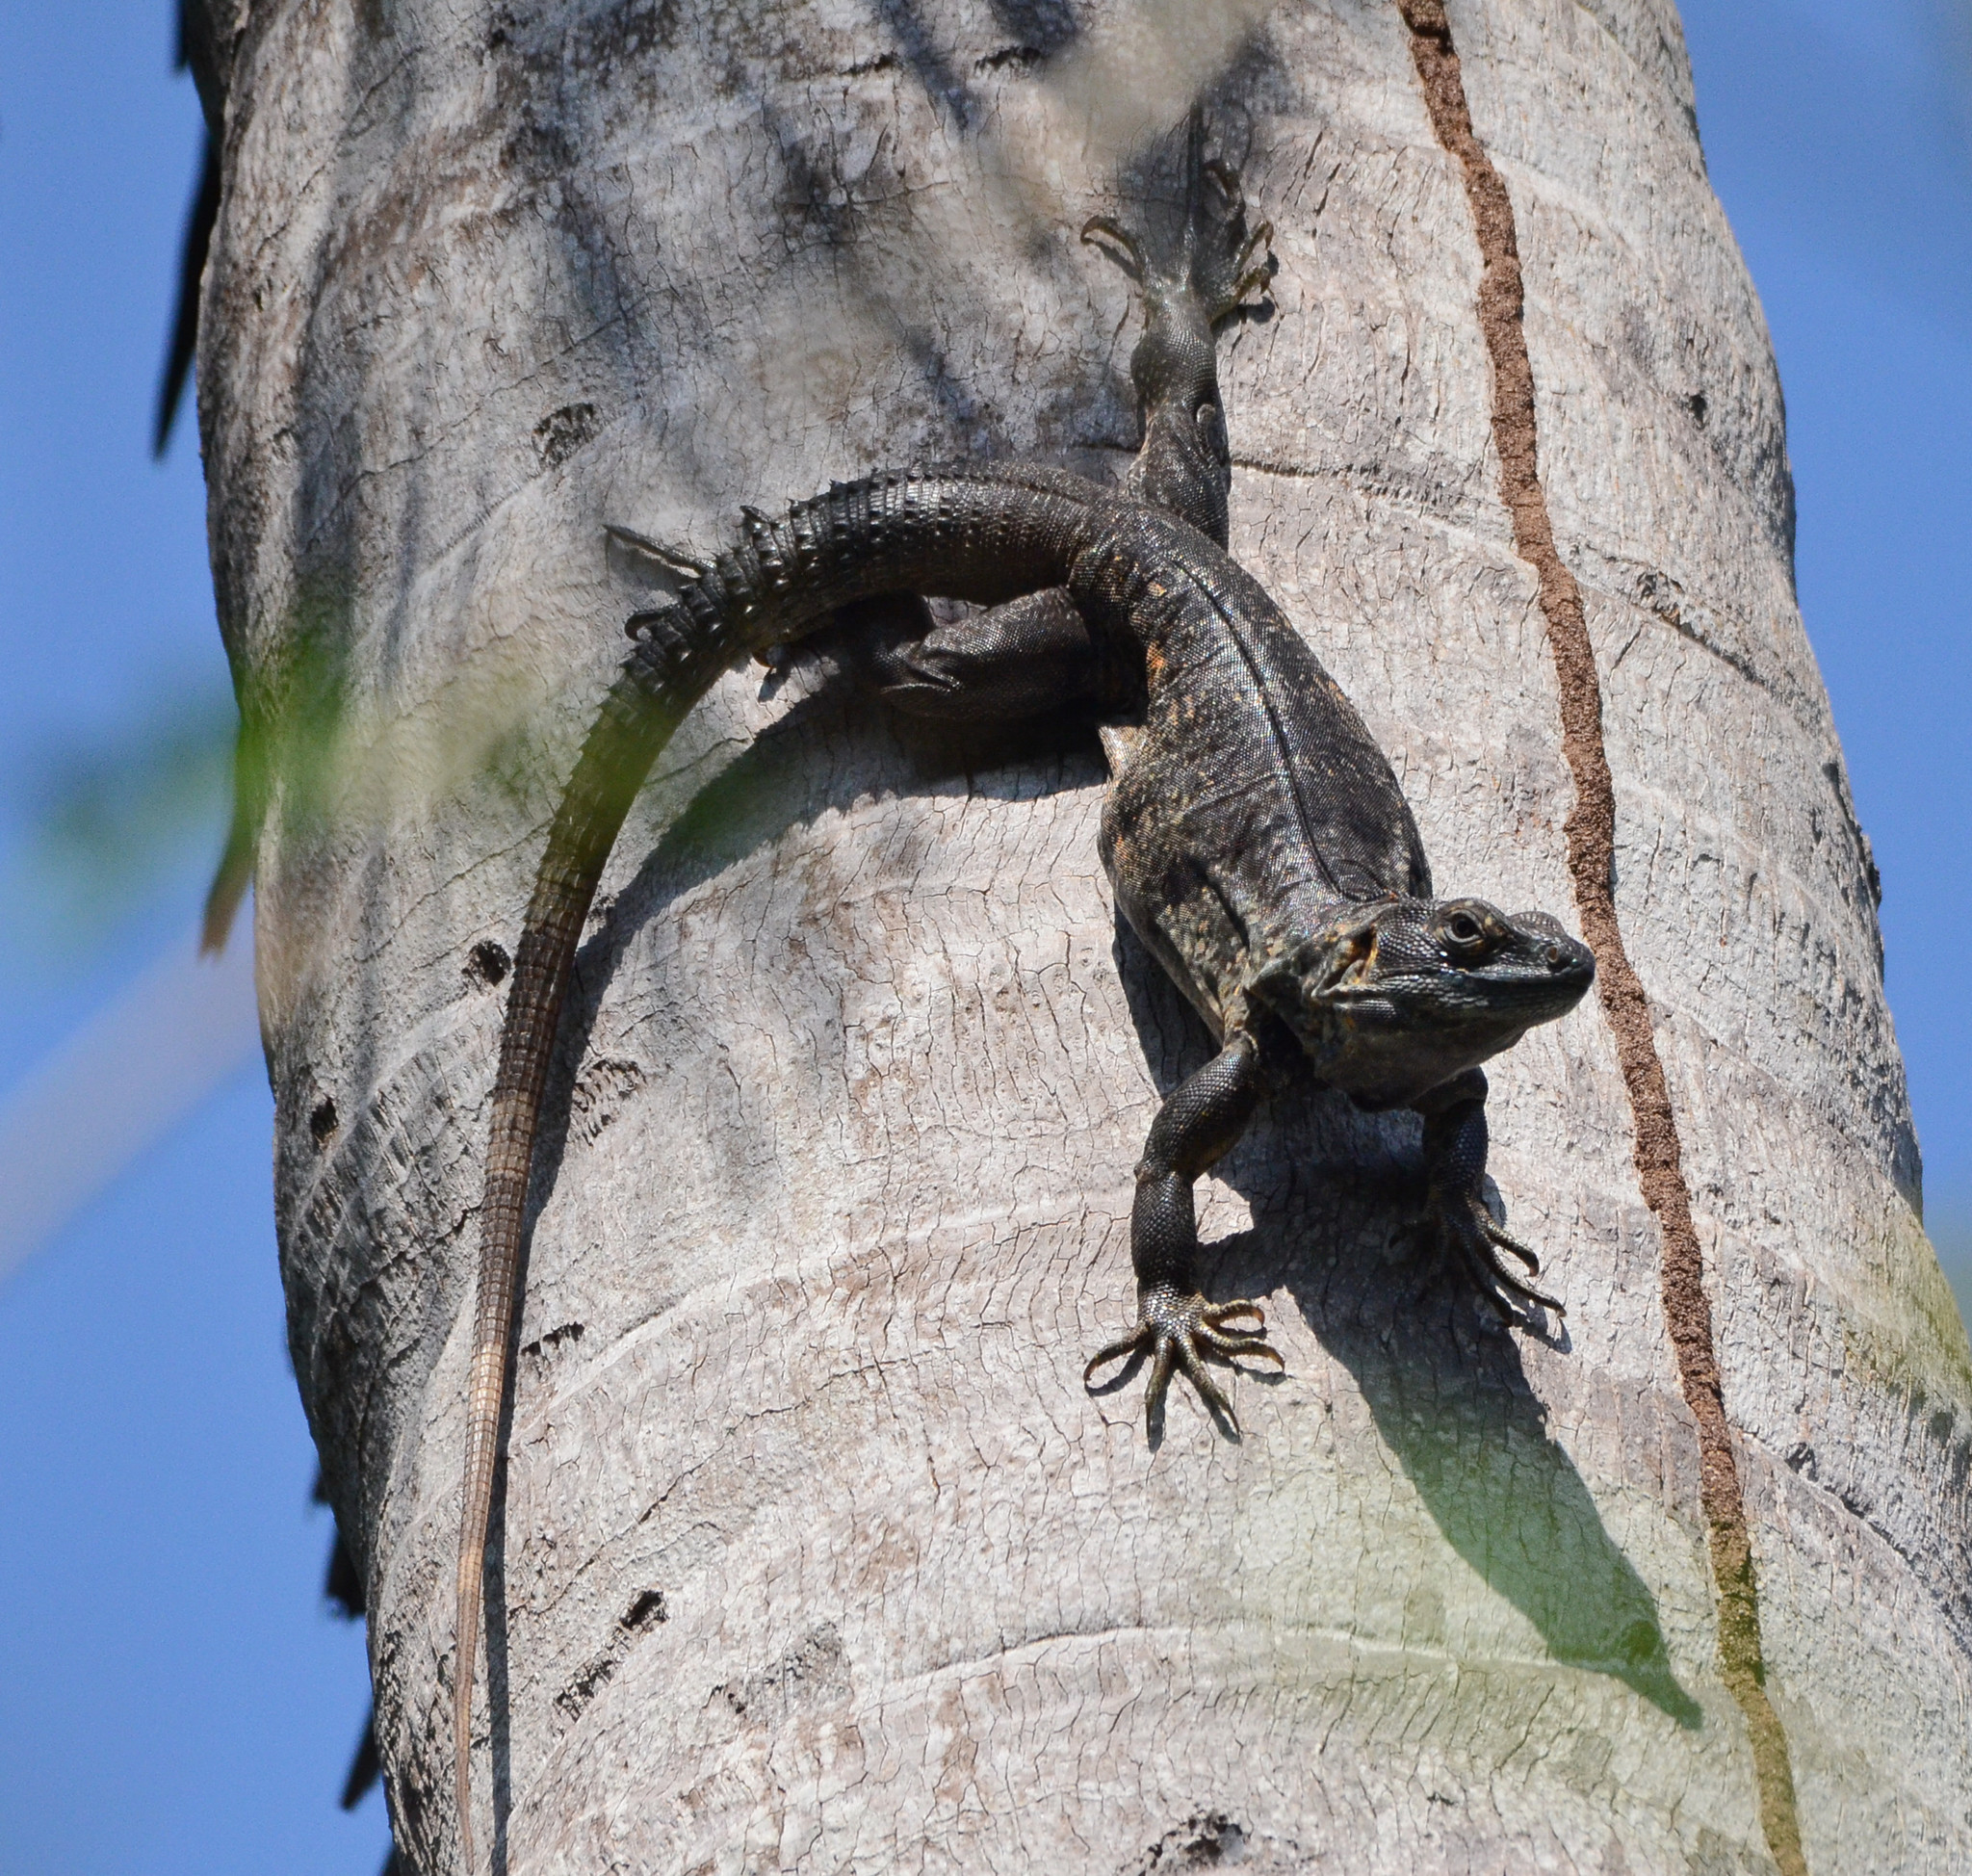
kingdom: Animalia
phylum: Chordata
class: Squamata
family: Iguanidae
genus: Ctenosaura
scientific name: Ctenosaura pectinata
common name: Guerreran spiny-tailed iguana
